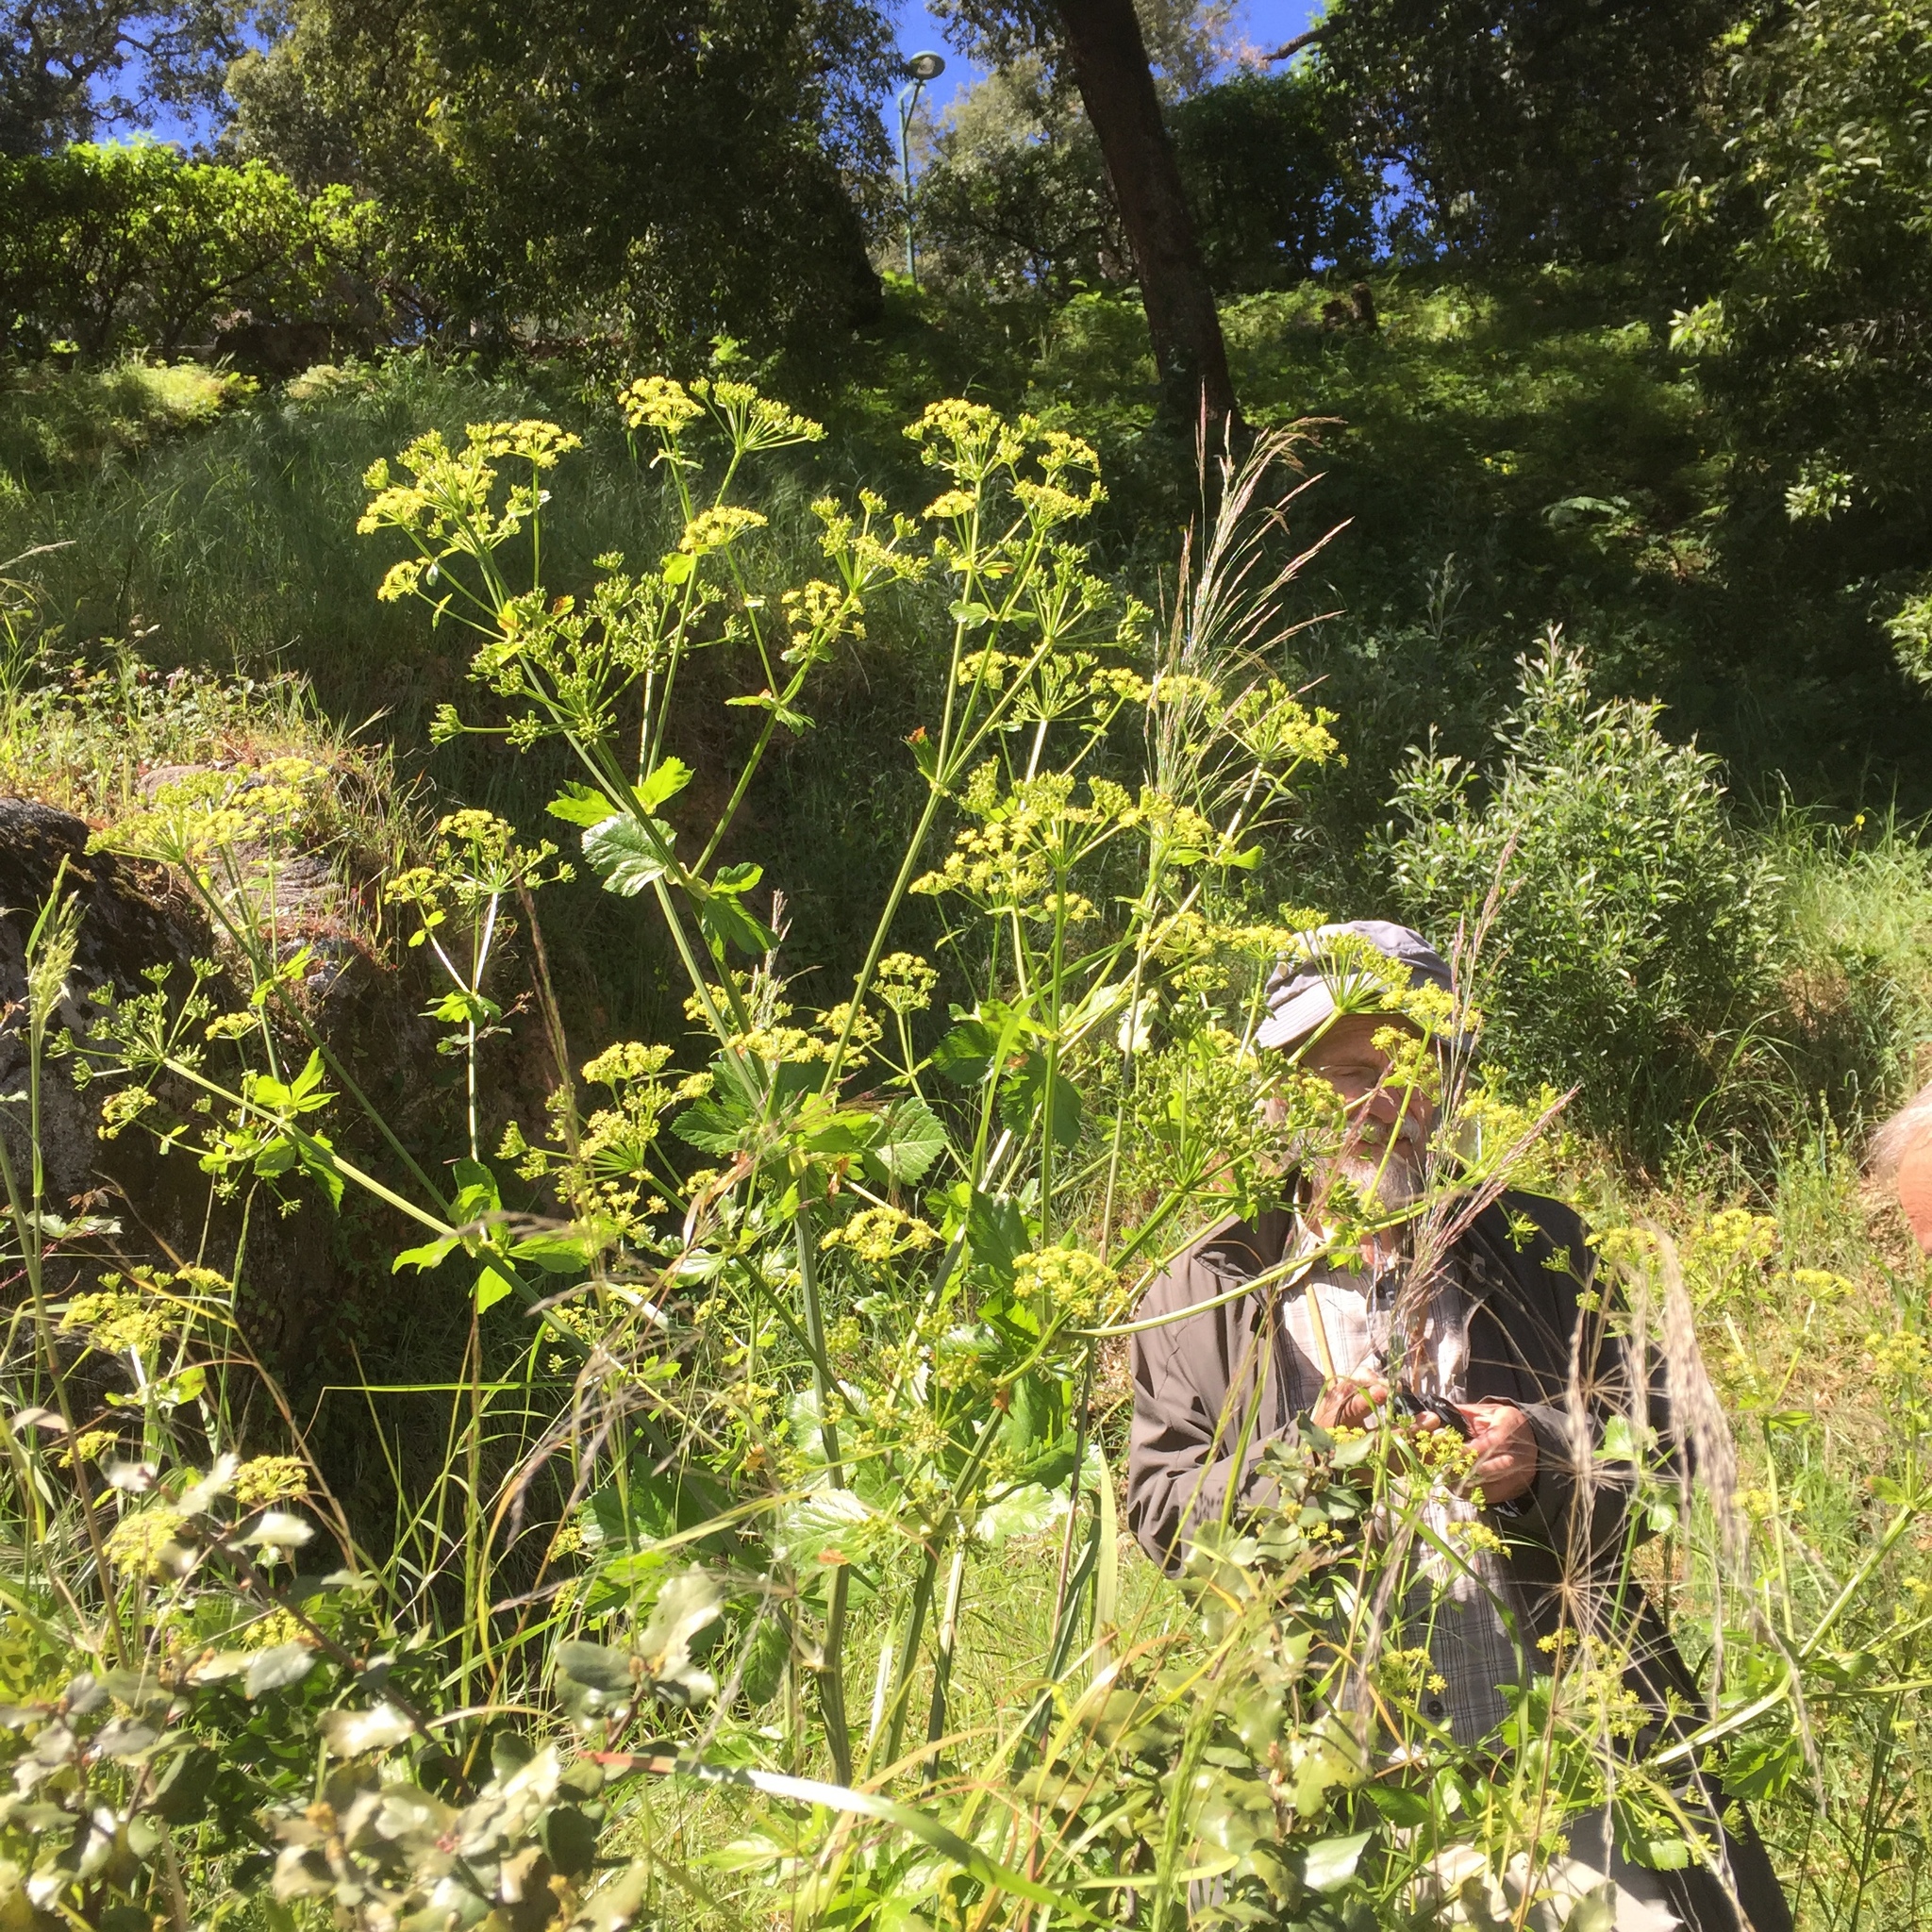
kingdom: Plantae
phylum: Tracheophyta
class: Magnoliopsida
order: Apiales
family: Apiaceae
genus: Smyrnium
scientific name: Smyrnium olusatrum
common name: Alexanders
